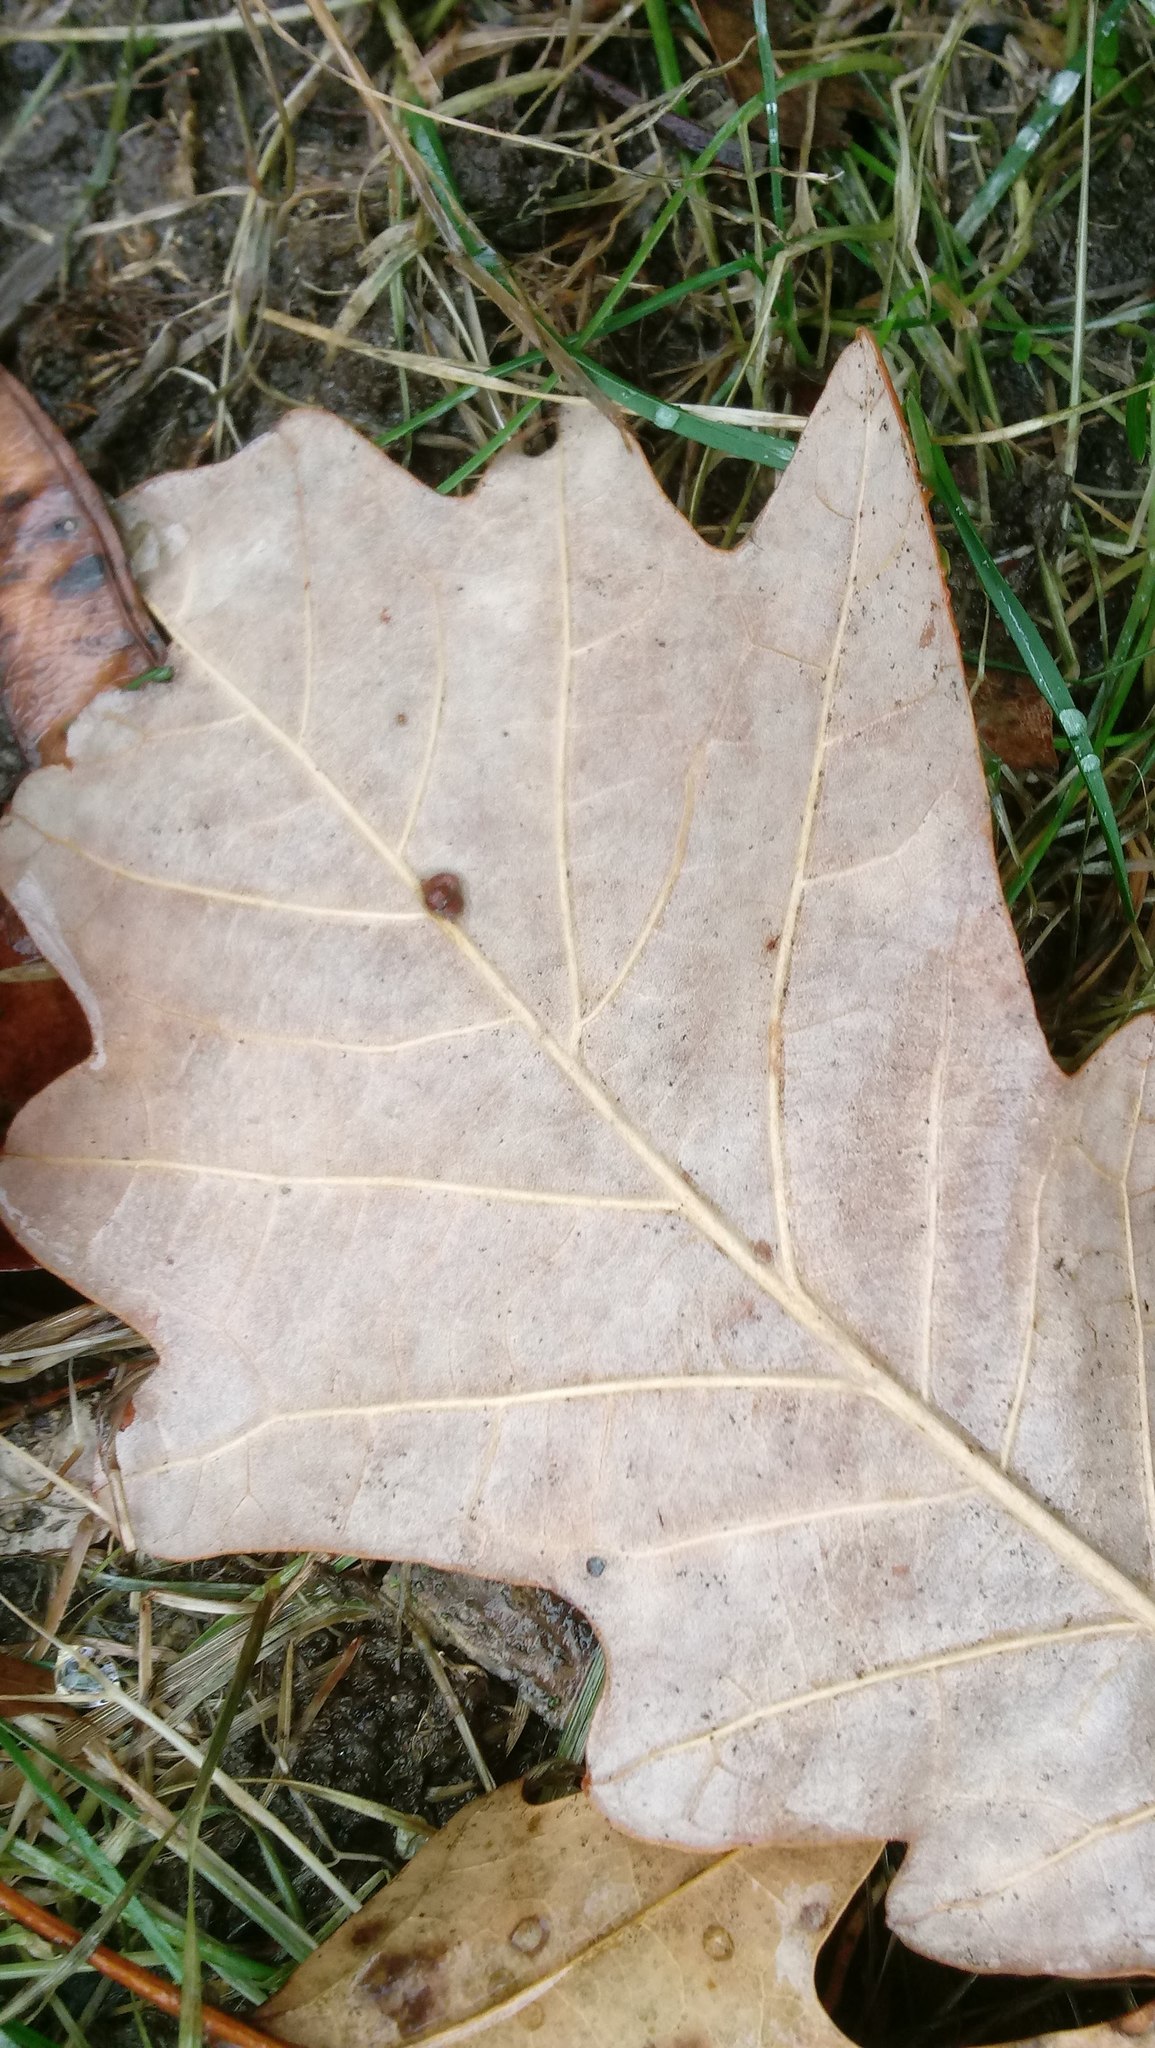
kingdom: Animalia
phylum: Arthropoda
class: Insecta
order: Hymenoptera
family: Cynipidae
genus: Andricus
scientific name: Andricus Druon ignotum
